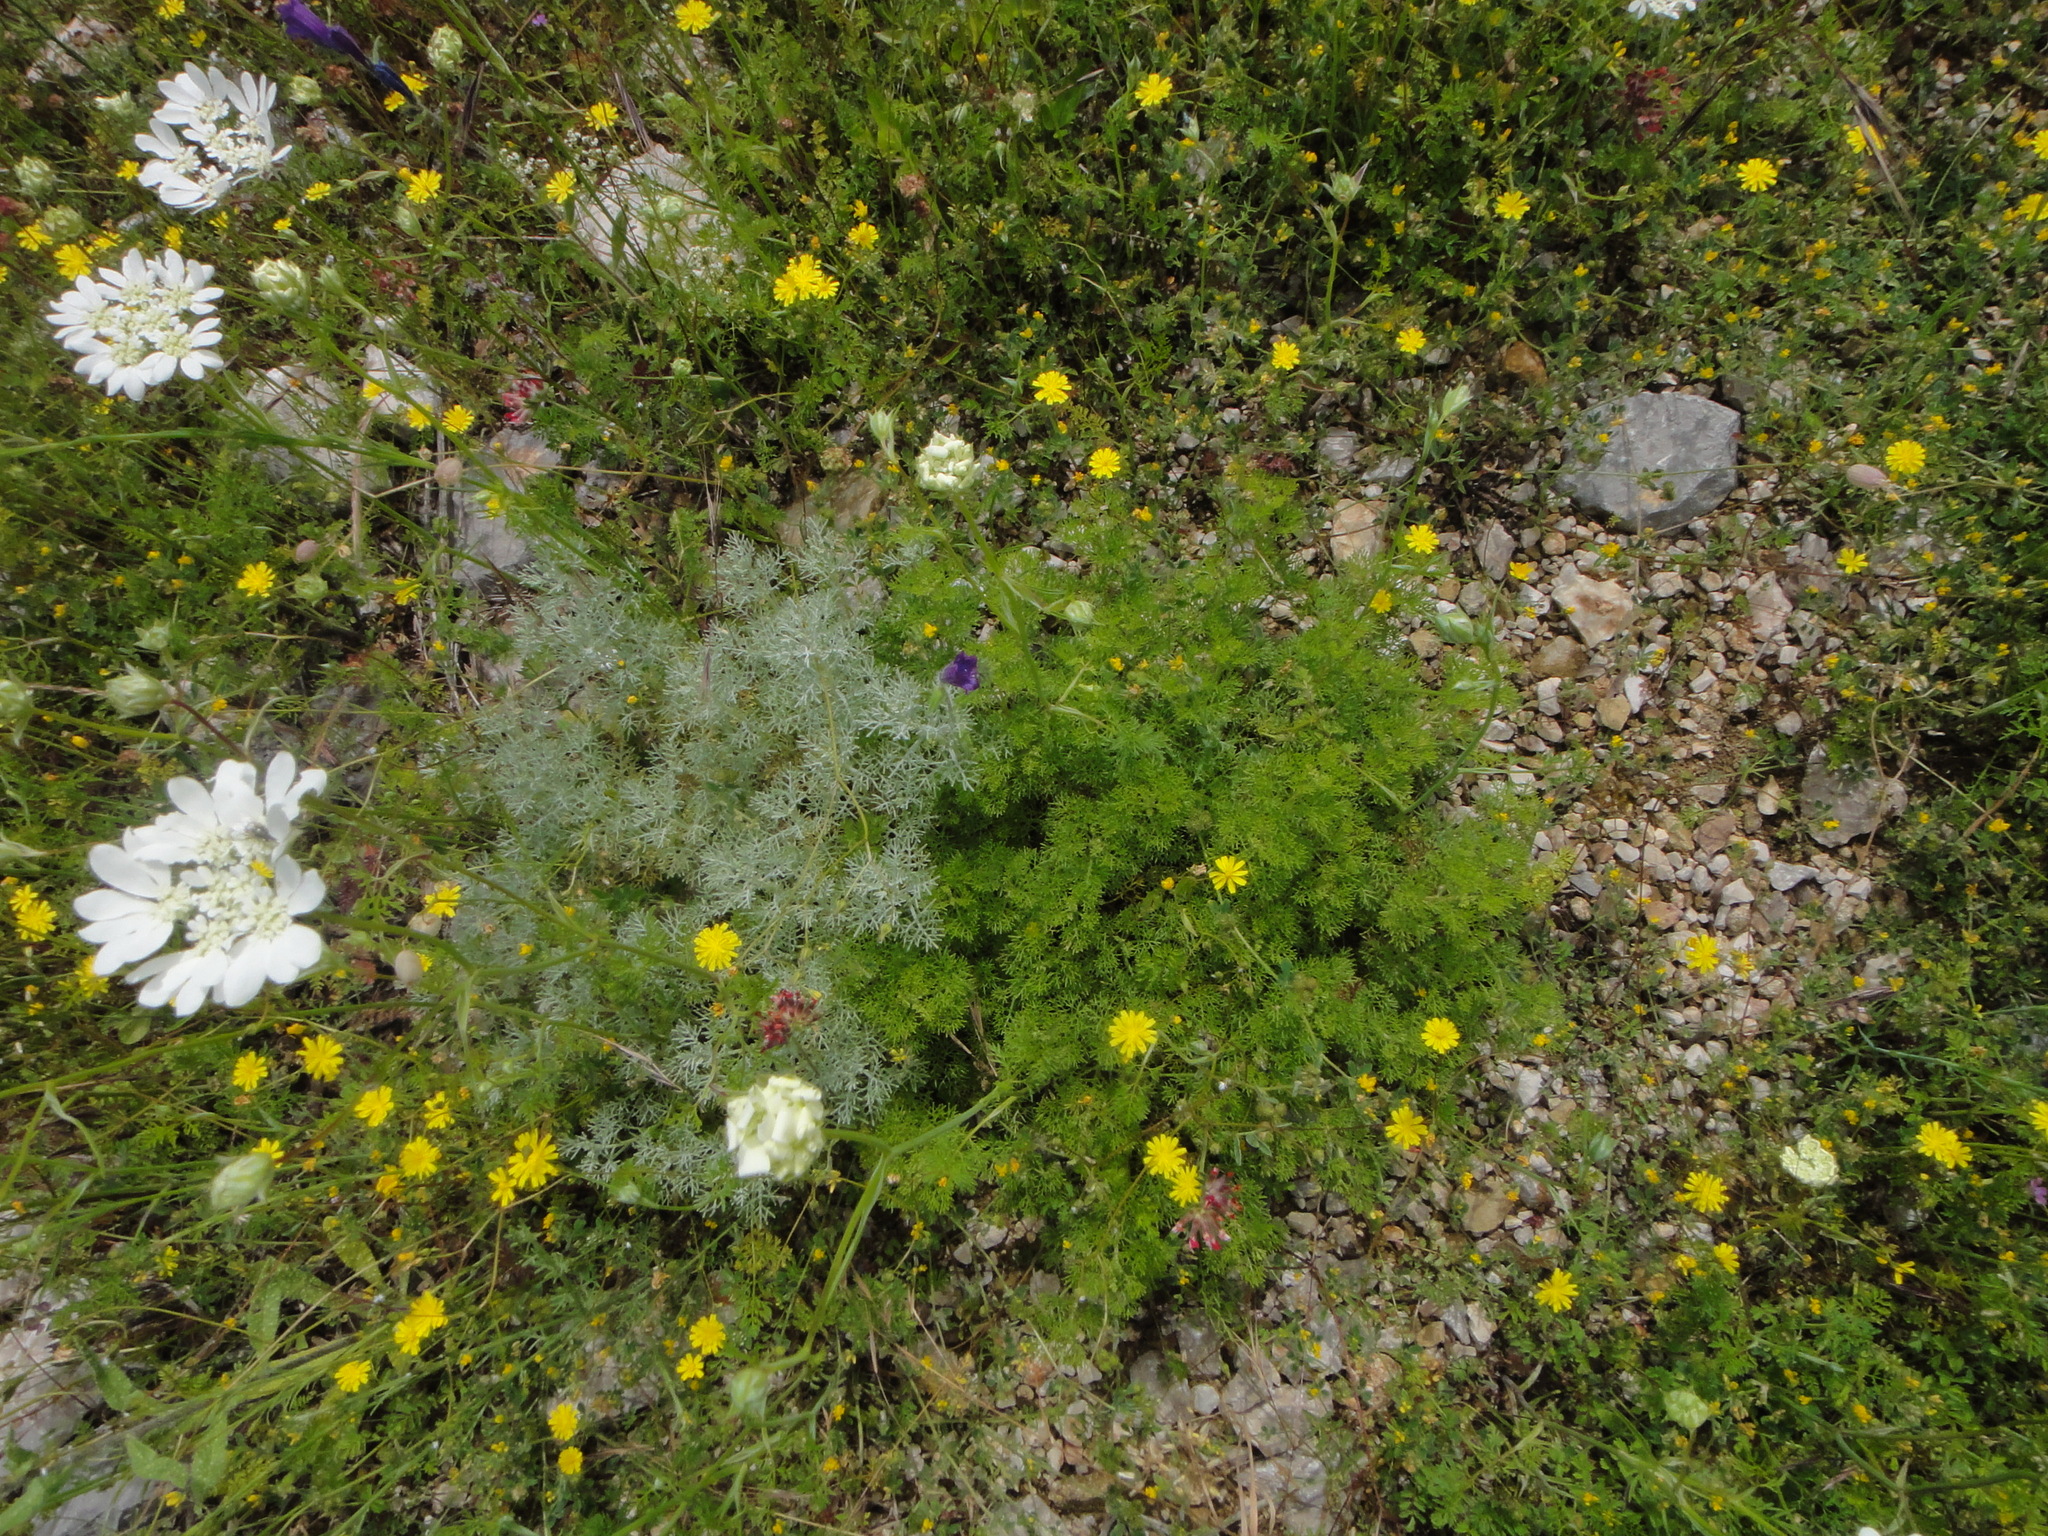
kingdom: Plantae
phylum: Tracheophyta
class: Magnoliopsida
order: Asterales
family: Asteraceae
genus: Artemisia
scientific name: Artemisia alba
